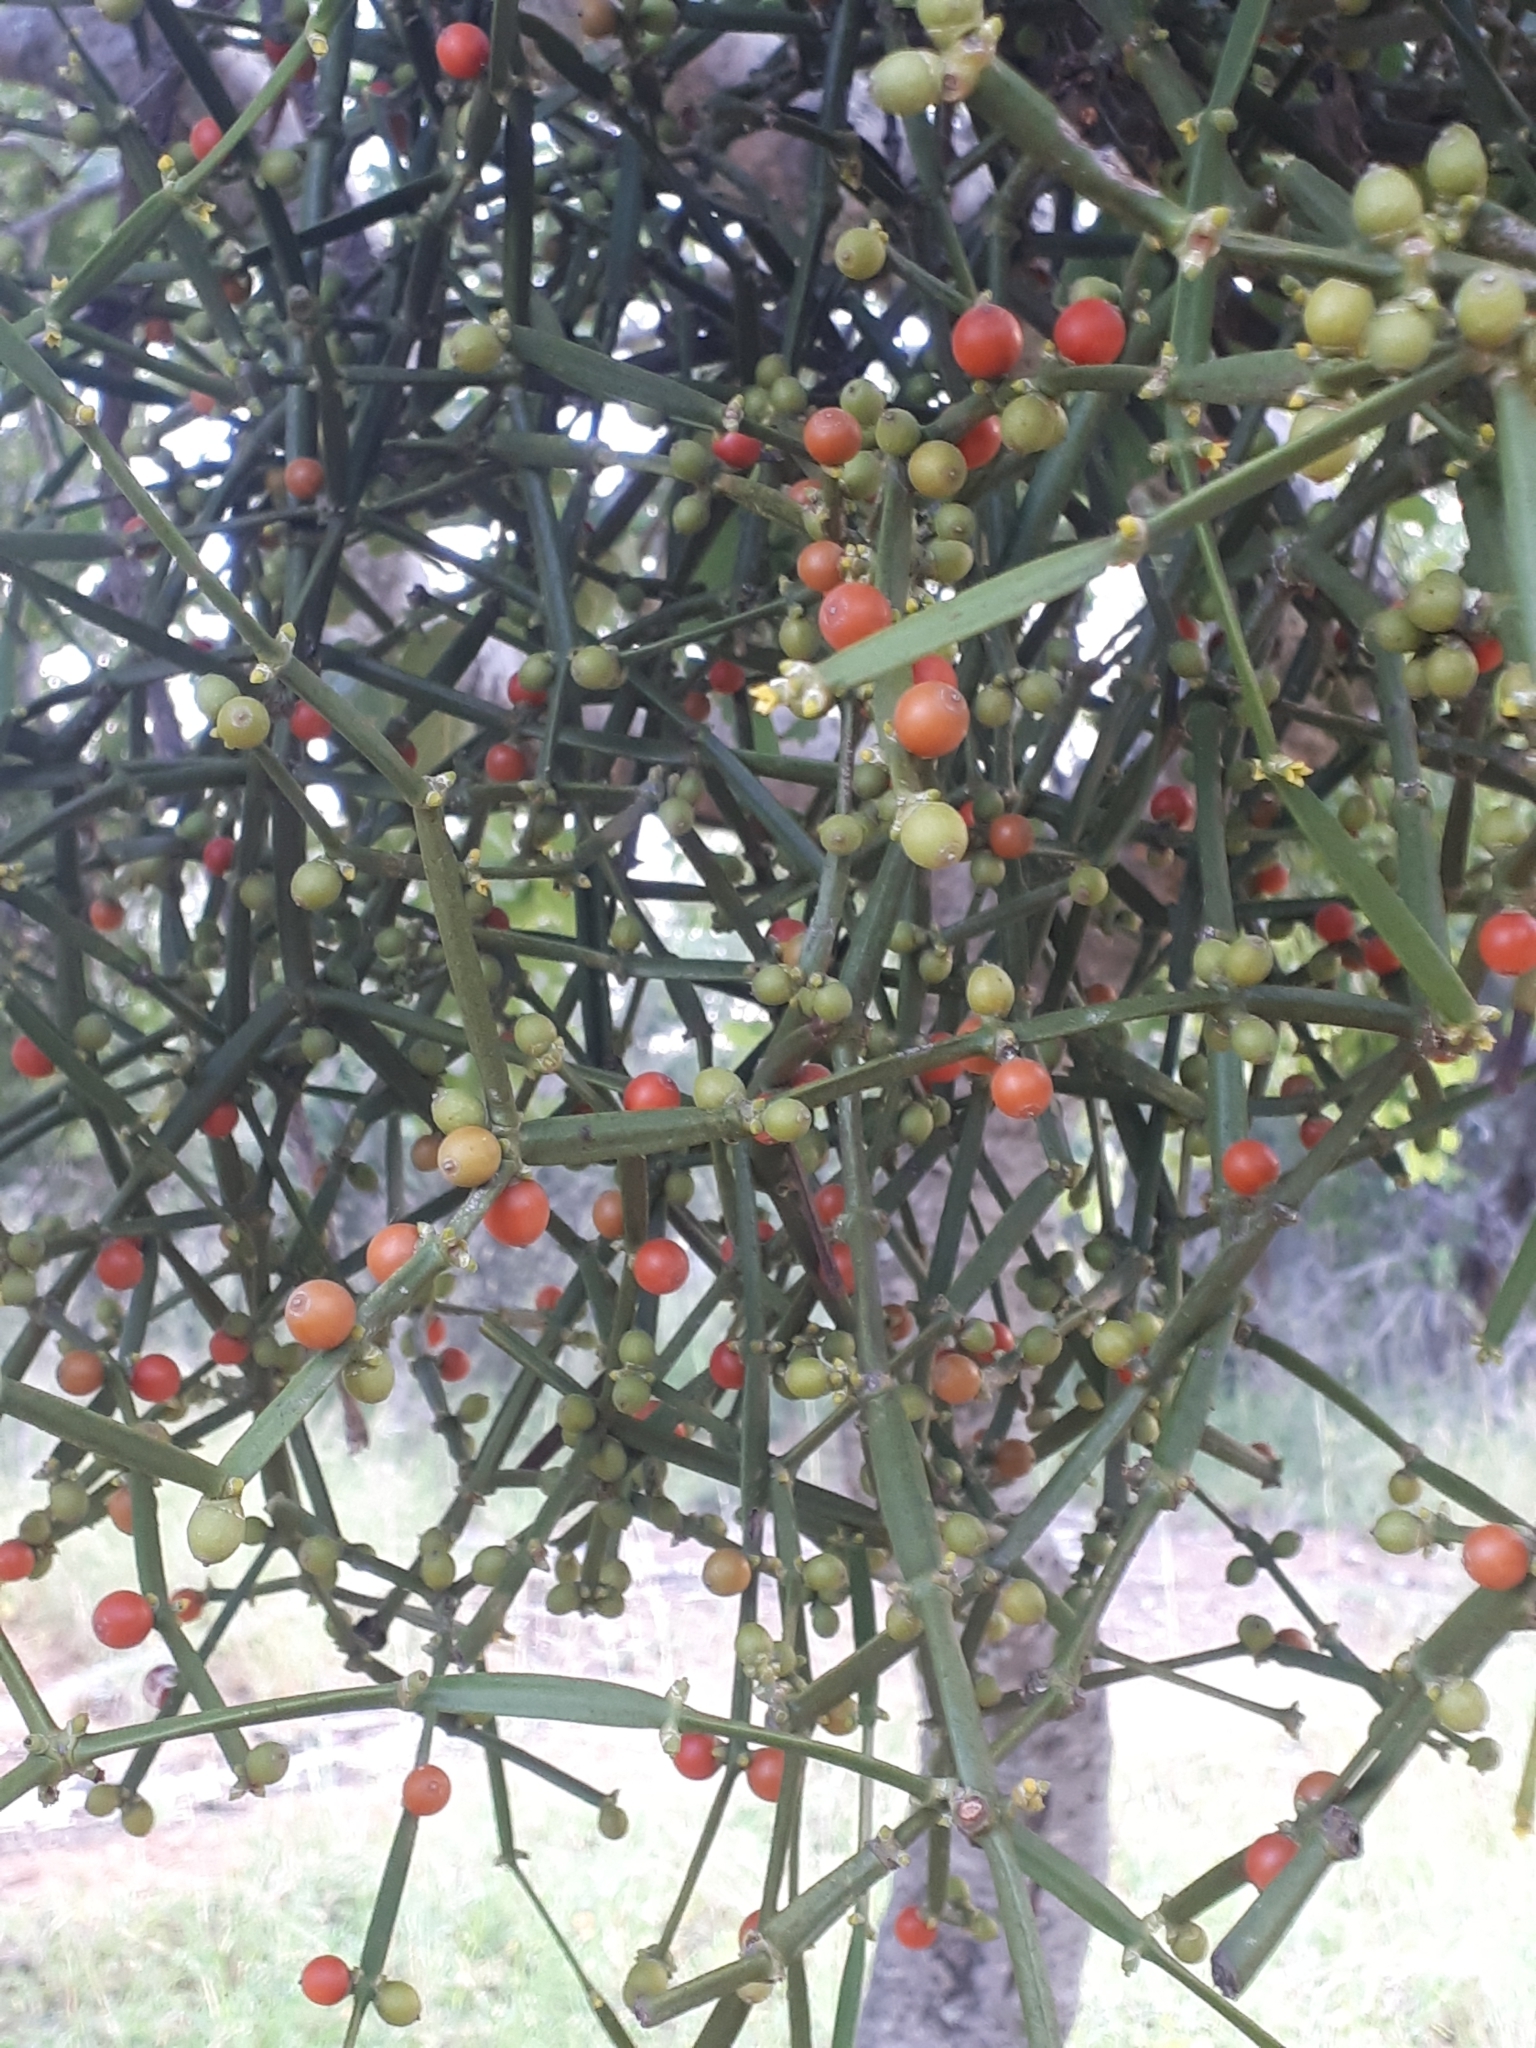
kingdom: Plantae
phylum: Tracheophyta
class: Magnoliopsida
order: Santalales
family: Viscaceae
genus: Viscum
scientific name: Viscum combreticola
